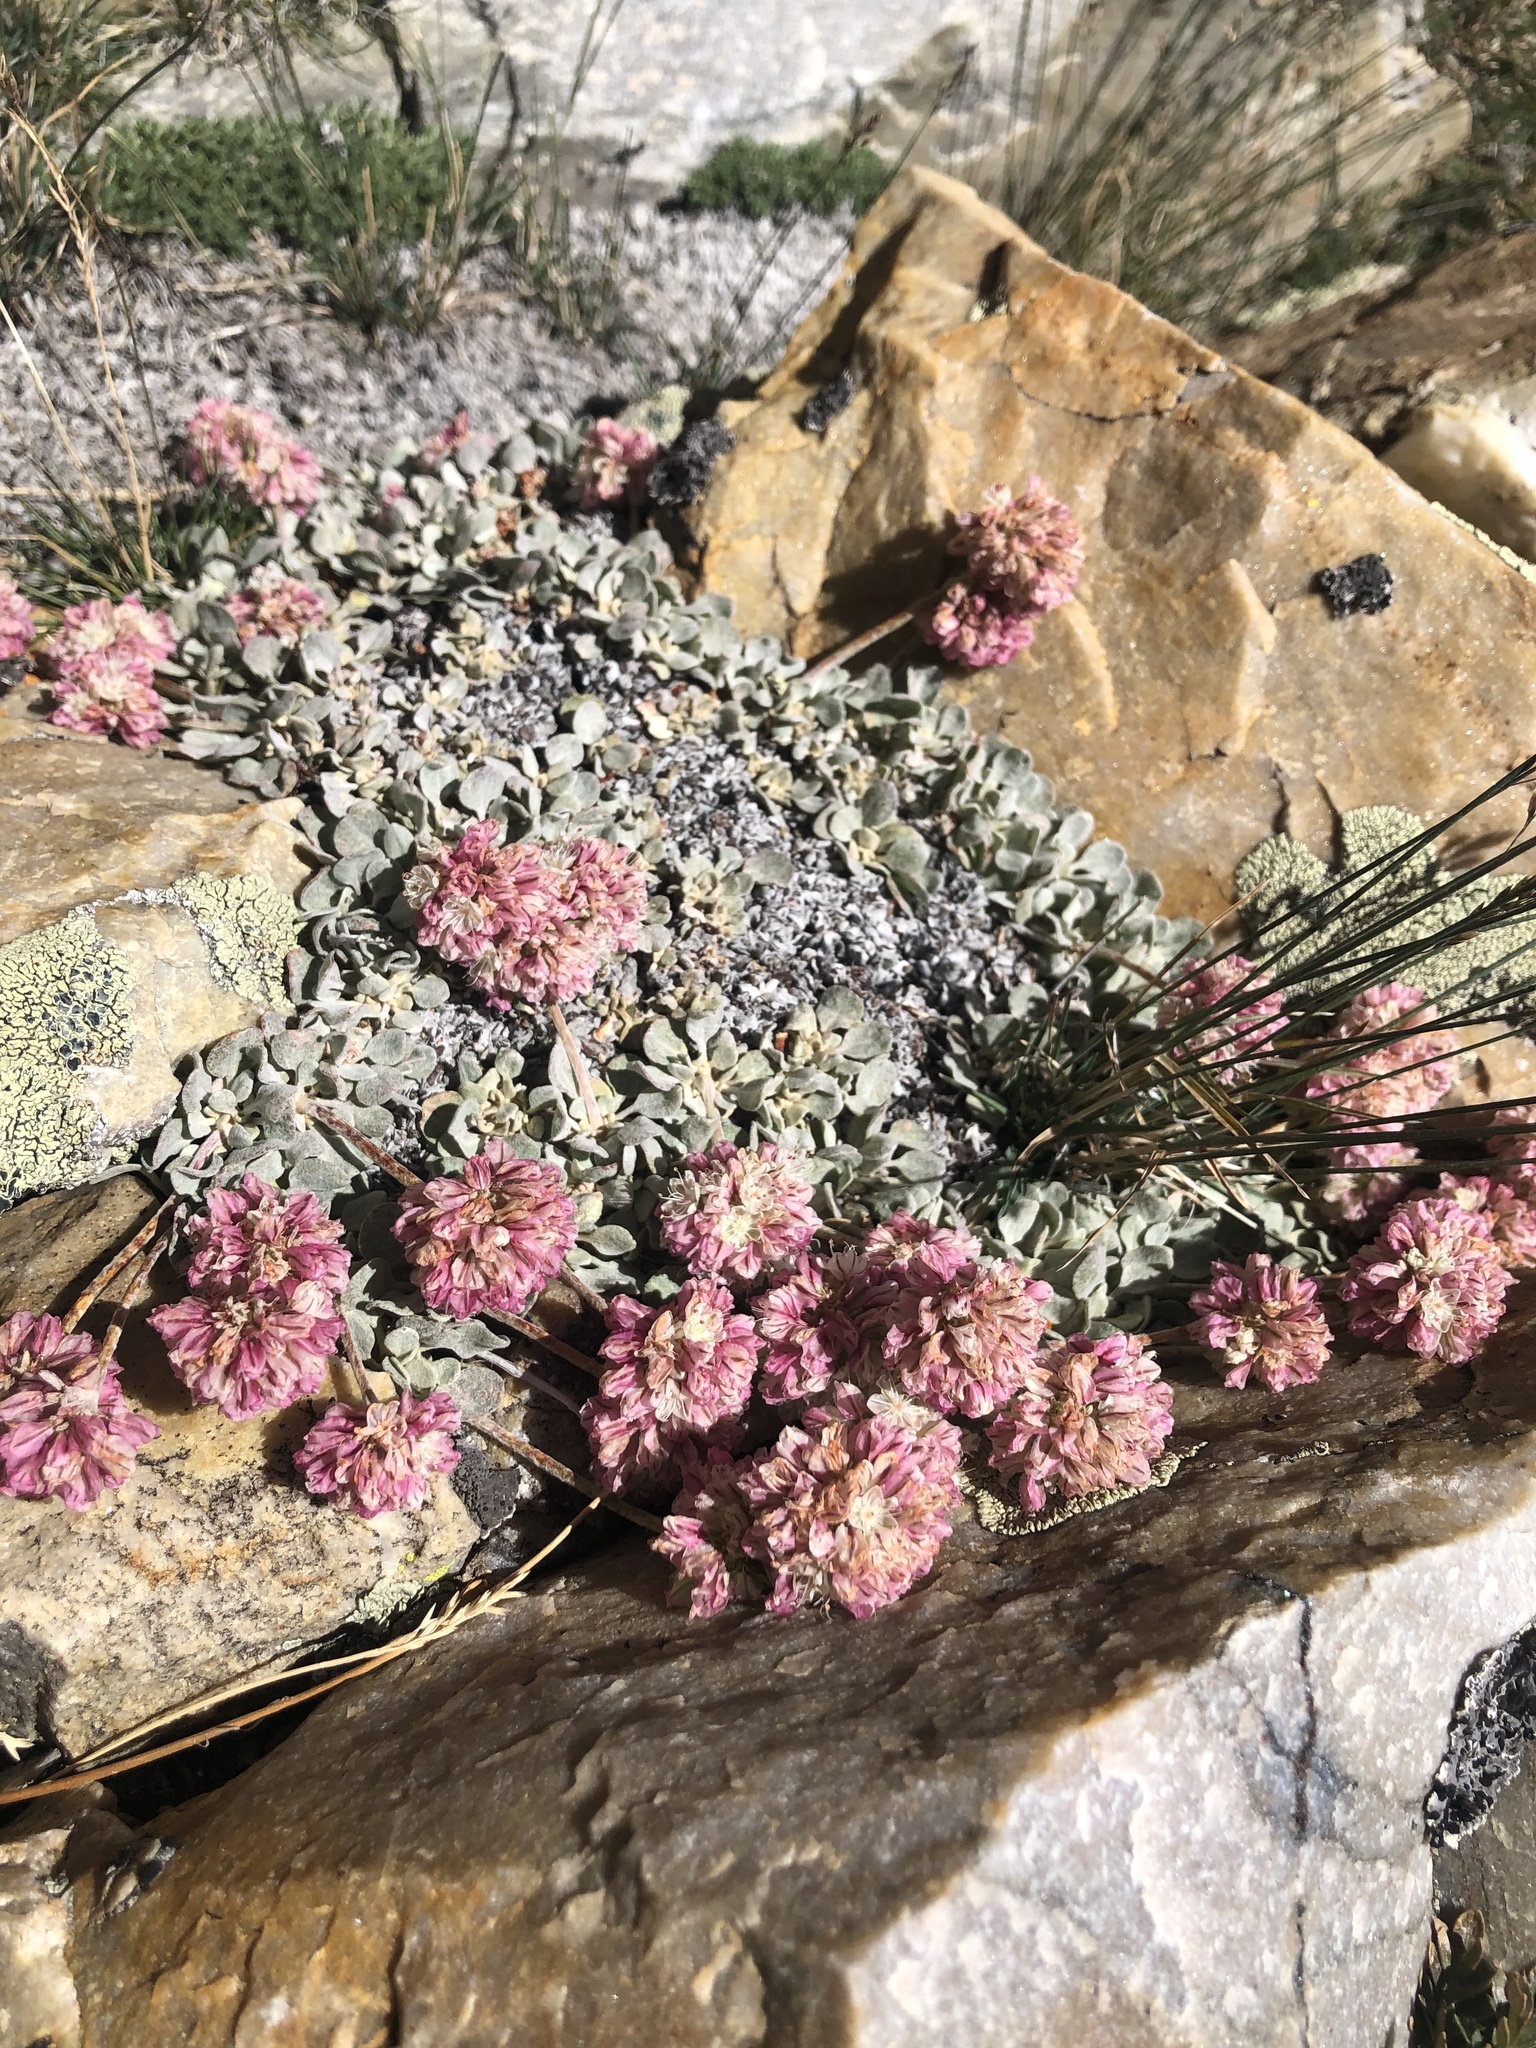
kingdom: Plantae
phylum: Tracheophyta
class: Magnoliopsida
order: Caryophyllales
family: Polygonaceae
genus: Eriogonum
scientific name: Eriogonum holmgrenii
